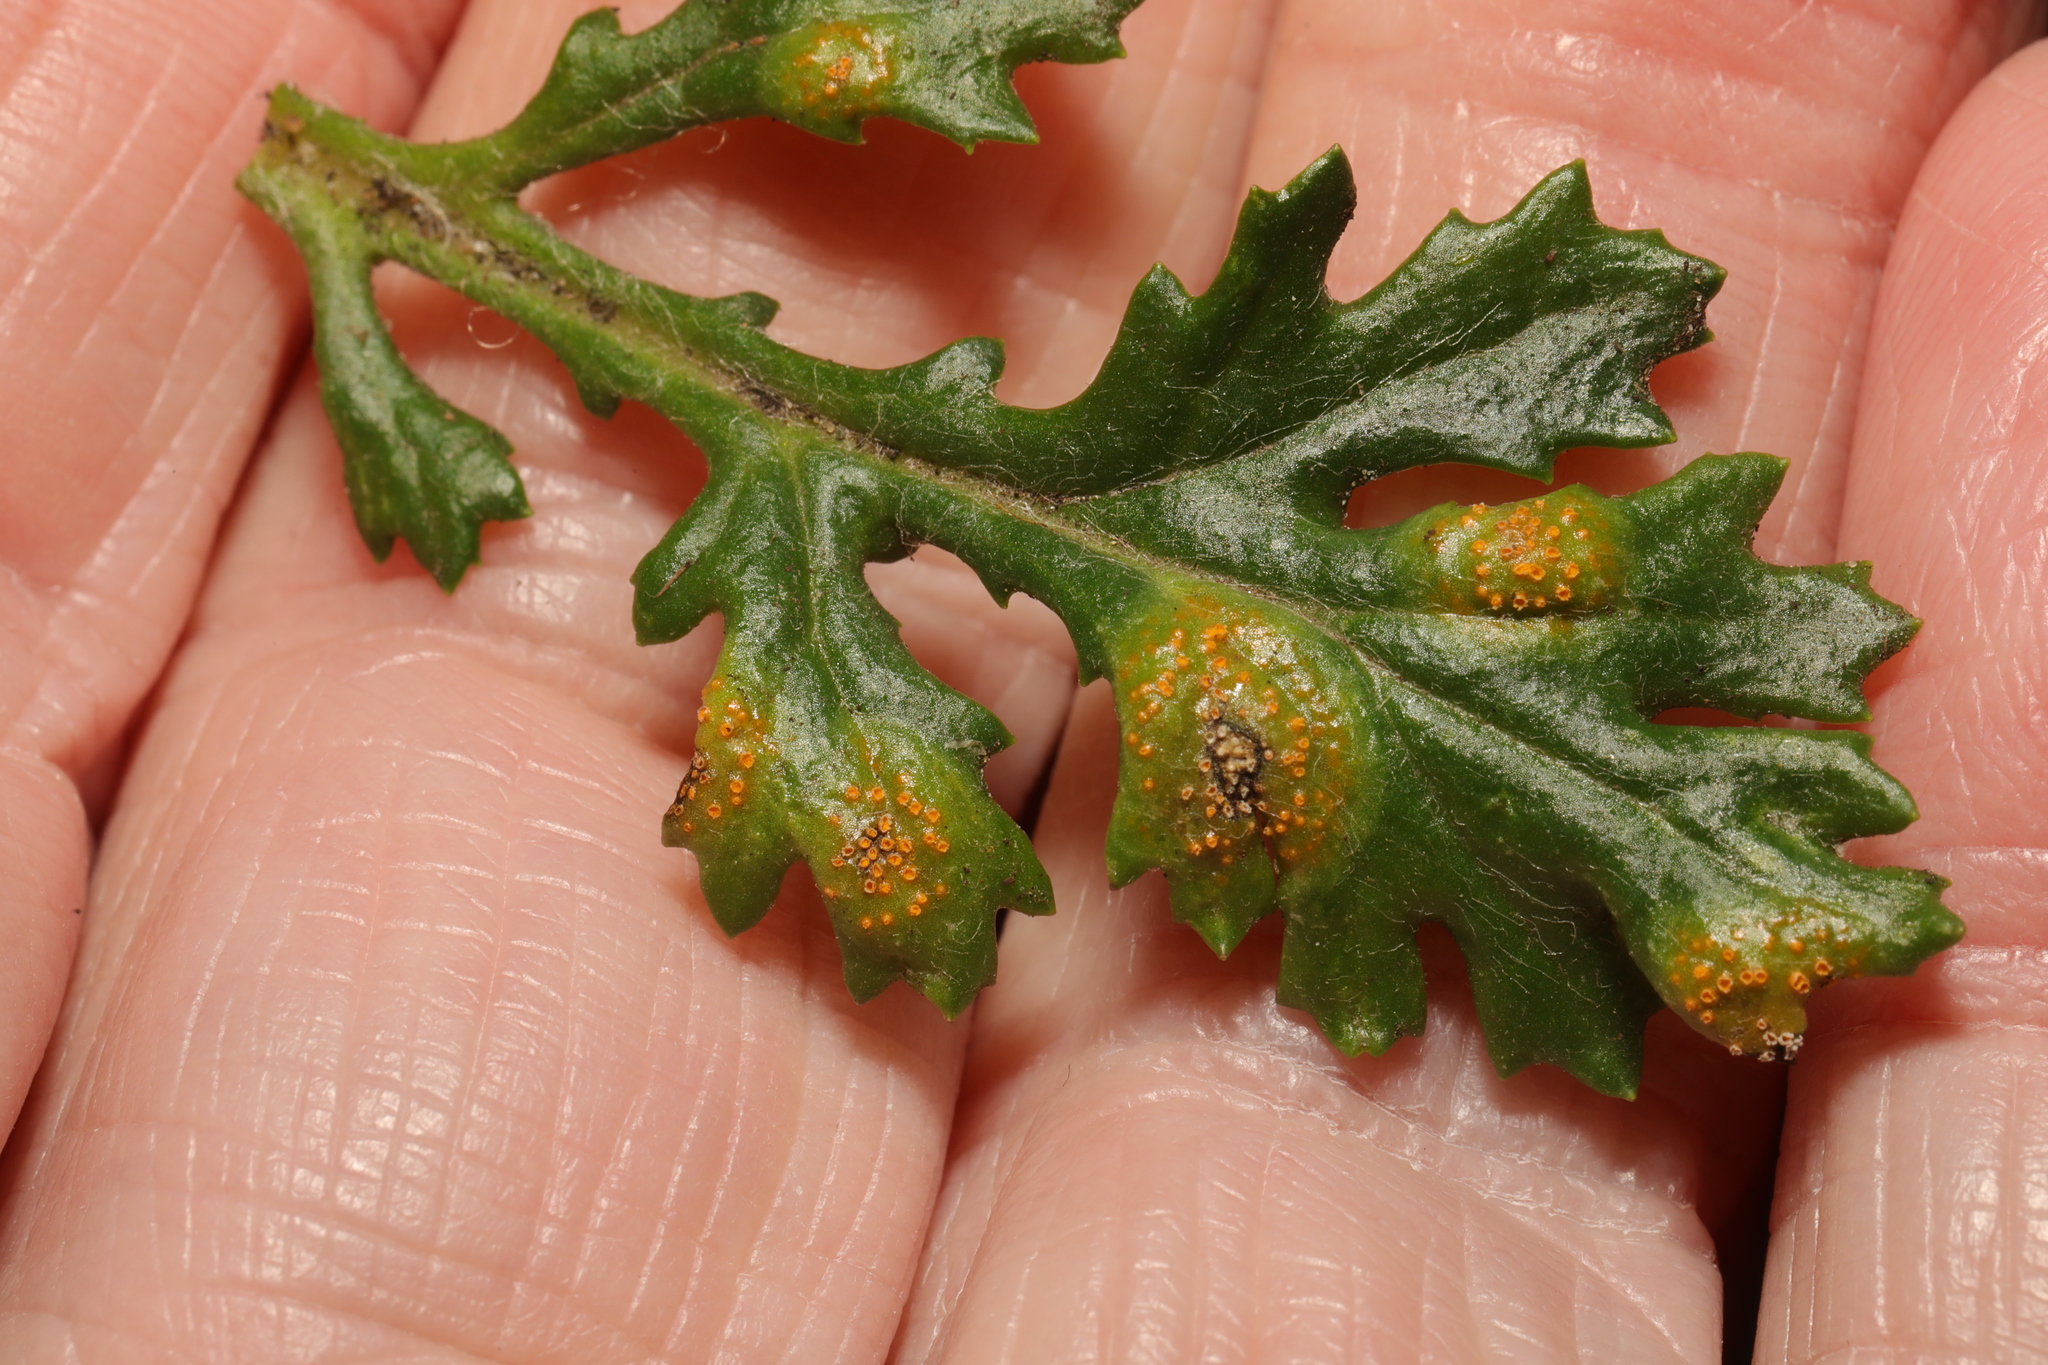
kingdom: Fungi
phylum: Basidiomycota
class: Pucciniomycetes
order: Pucciniales
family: Pucciniaceae
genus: Puccinia
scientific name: Puccinia lagenophorae
